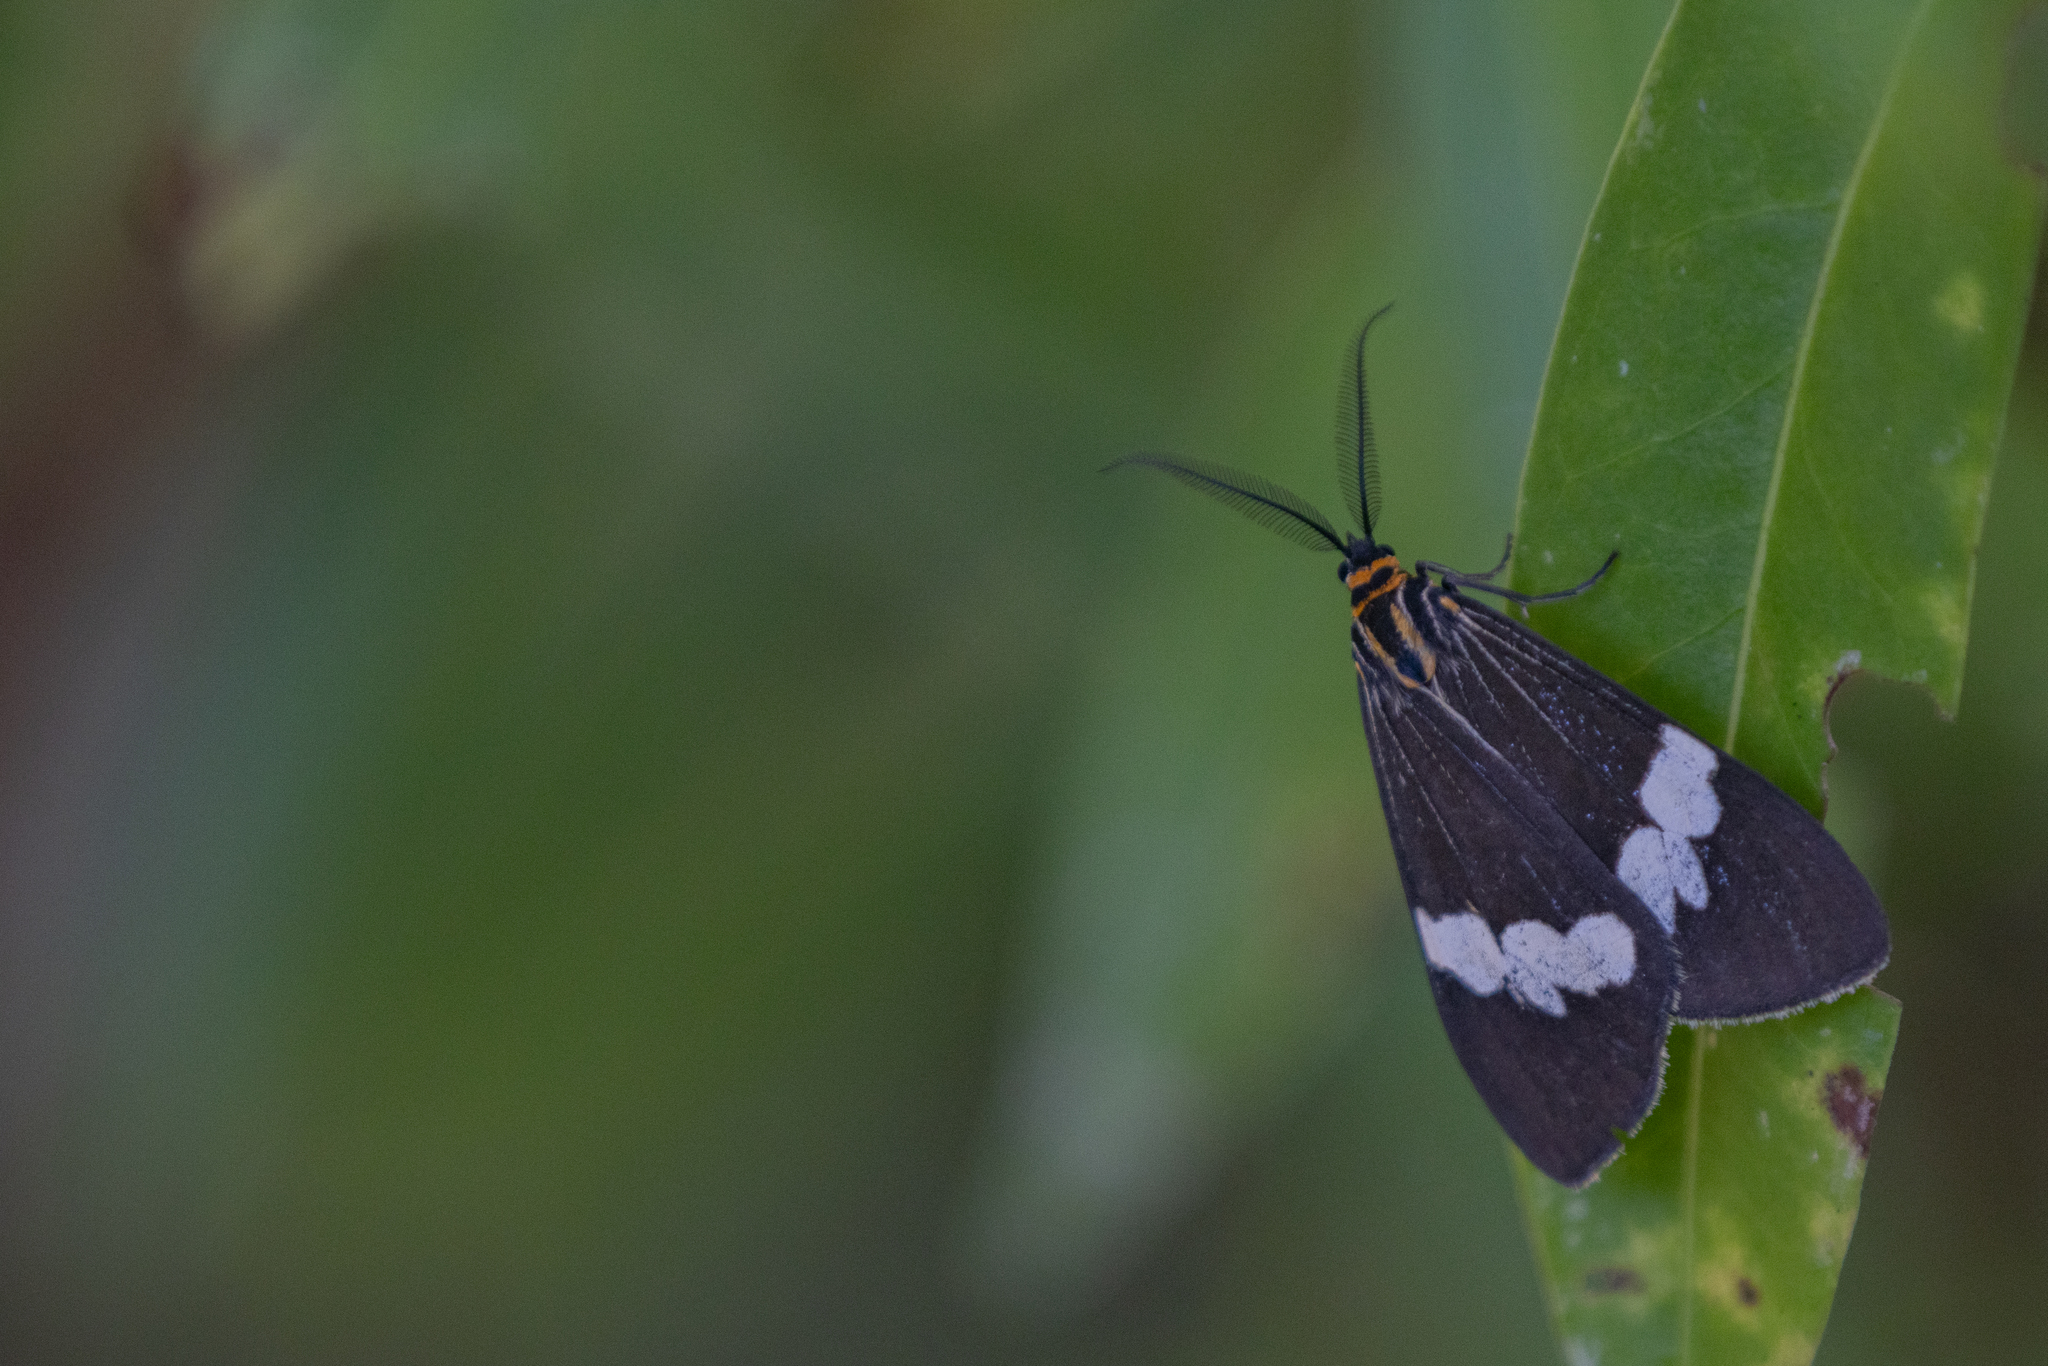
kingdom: Animalia
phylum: Arthropoda
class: Insecta
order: Lepidoptera
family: Erebidae
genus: Nyctemera
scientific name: Nyctemera amicus
